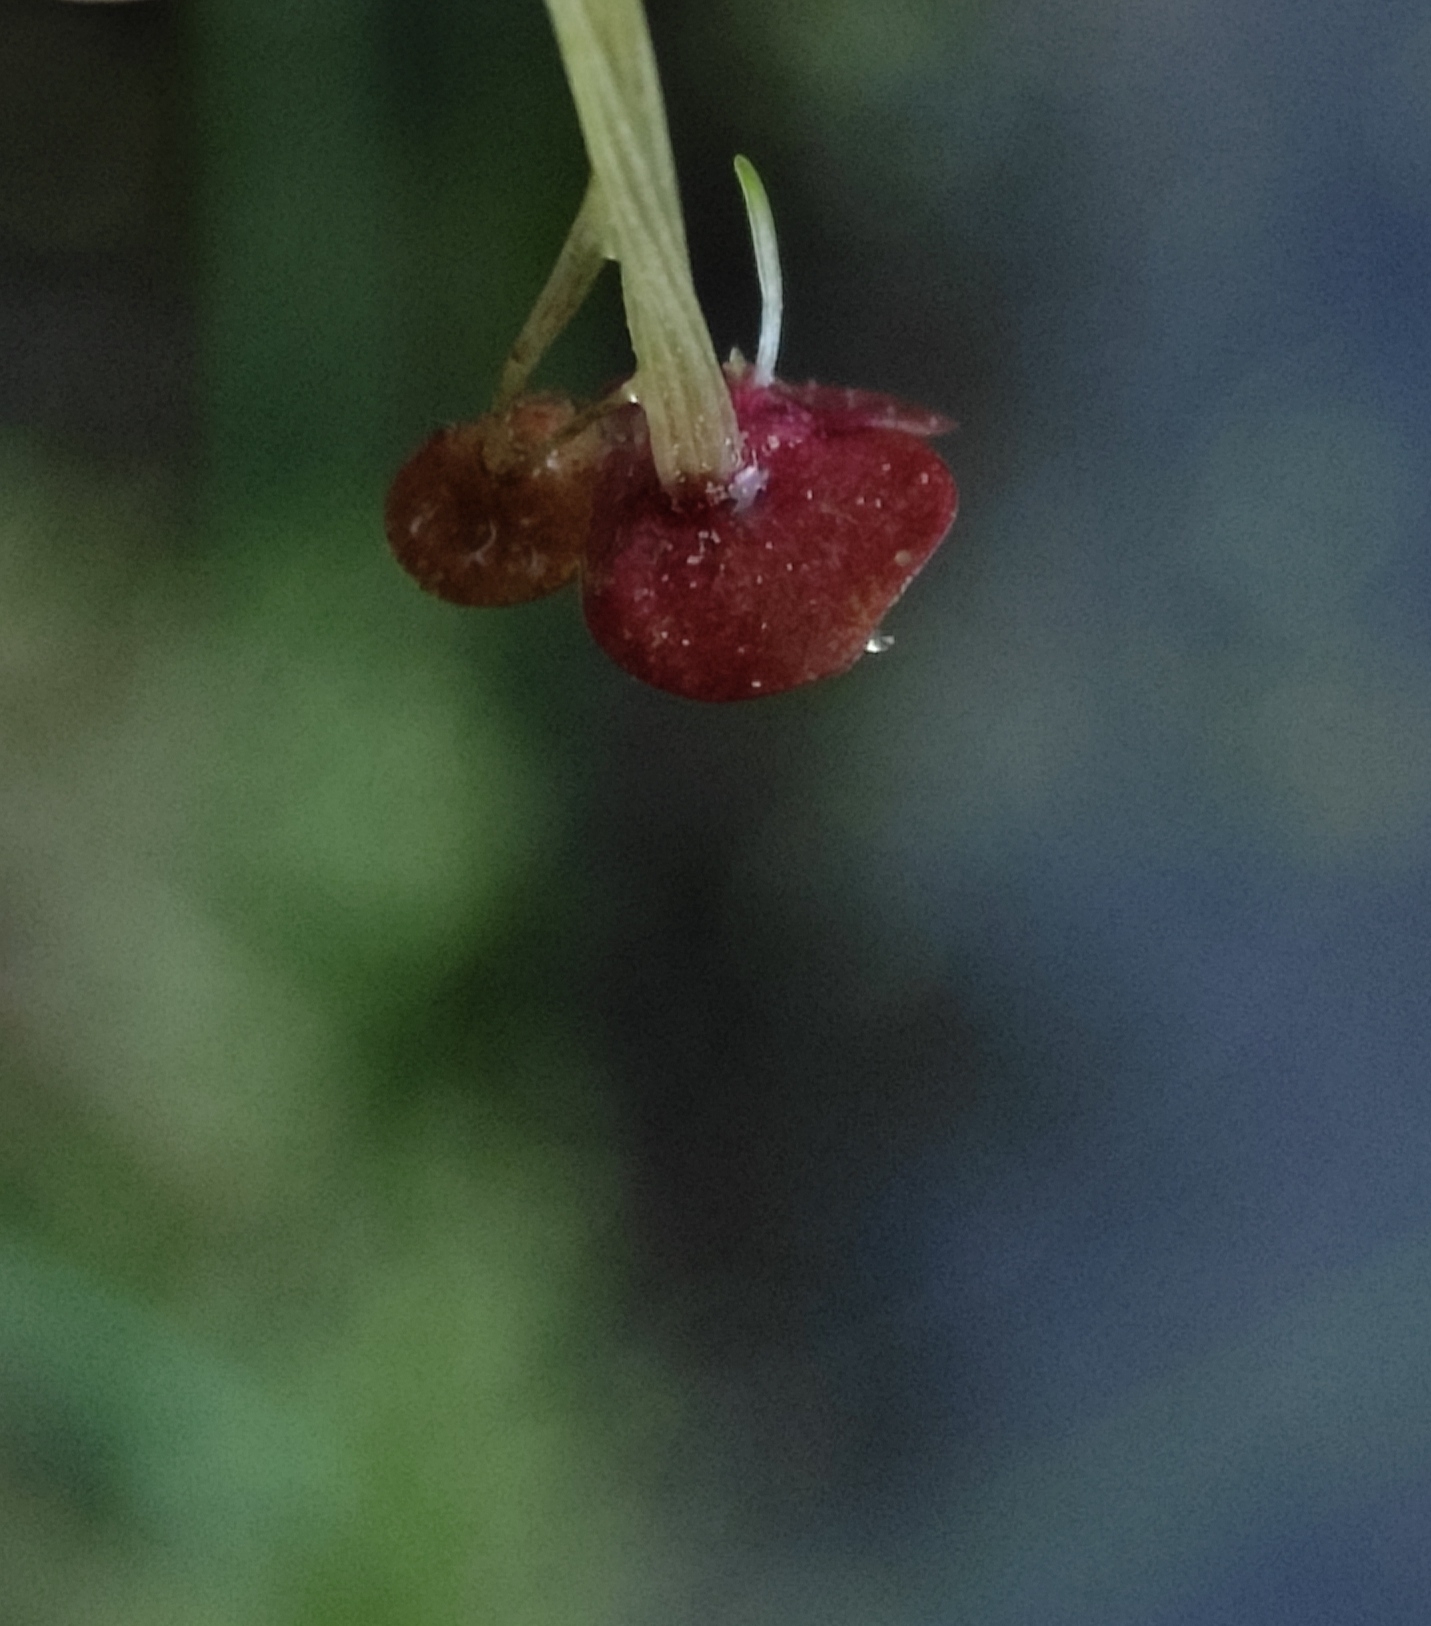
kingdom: Plantae
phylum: Tracheophyta
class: Liliopsida
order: Alismatales
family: Araceae
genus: Spirodela
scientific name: Spirodela polyrhiza
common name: Great duckweed
